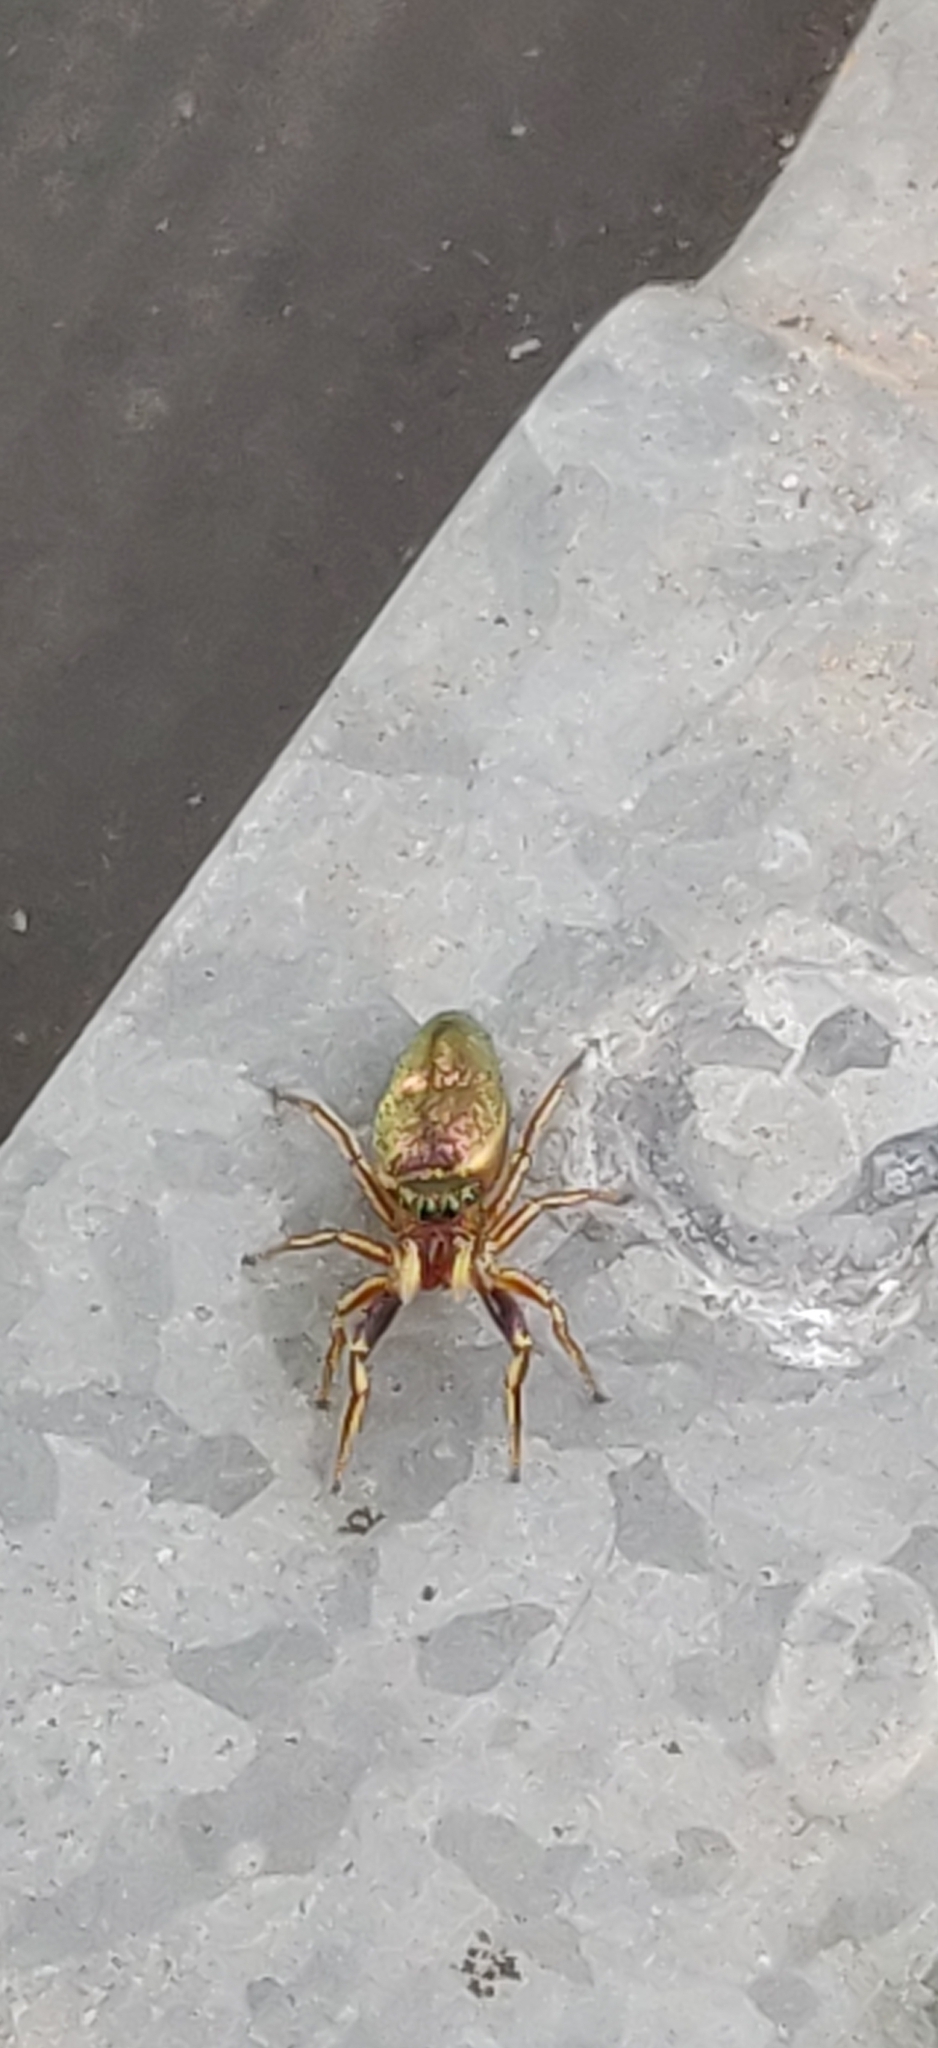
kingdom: Animalia
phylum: Arthropoda
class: Arachnida
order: Araneae
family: Salticidae
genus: Tutelina
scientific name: Tutelina elegans
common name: Thin-spined jumping spider
